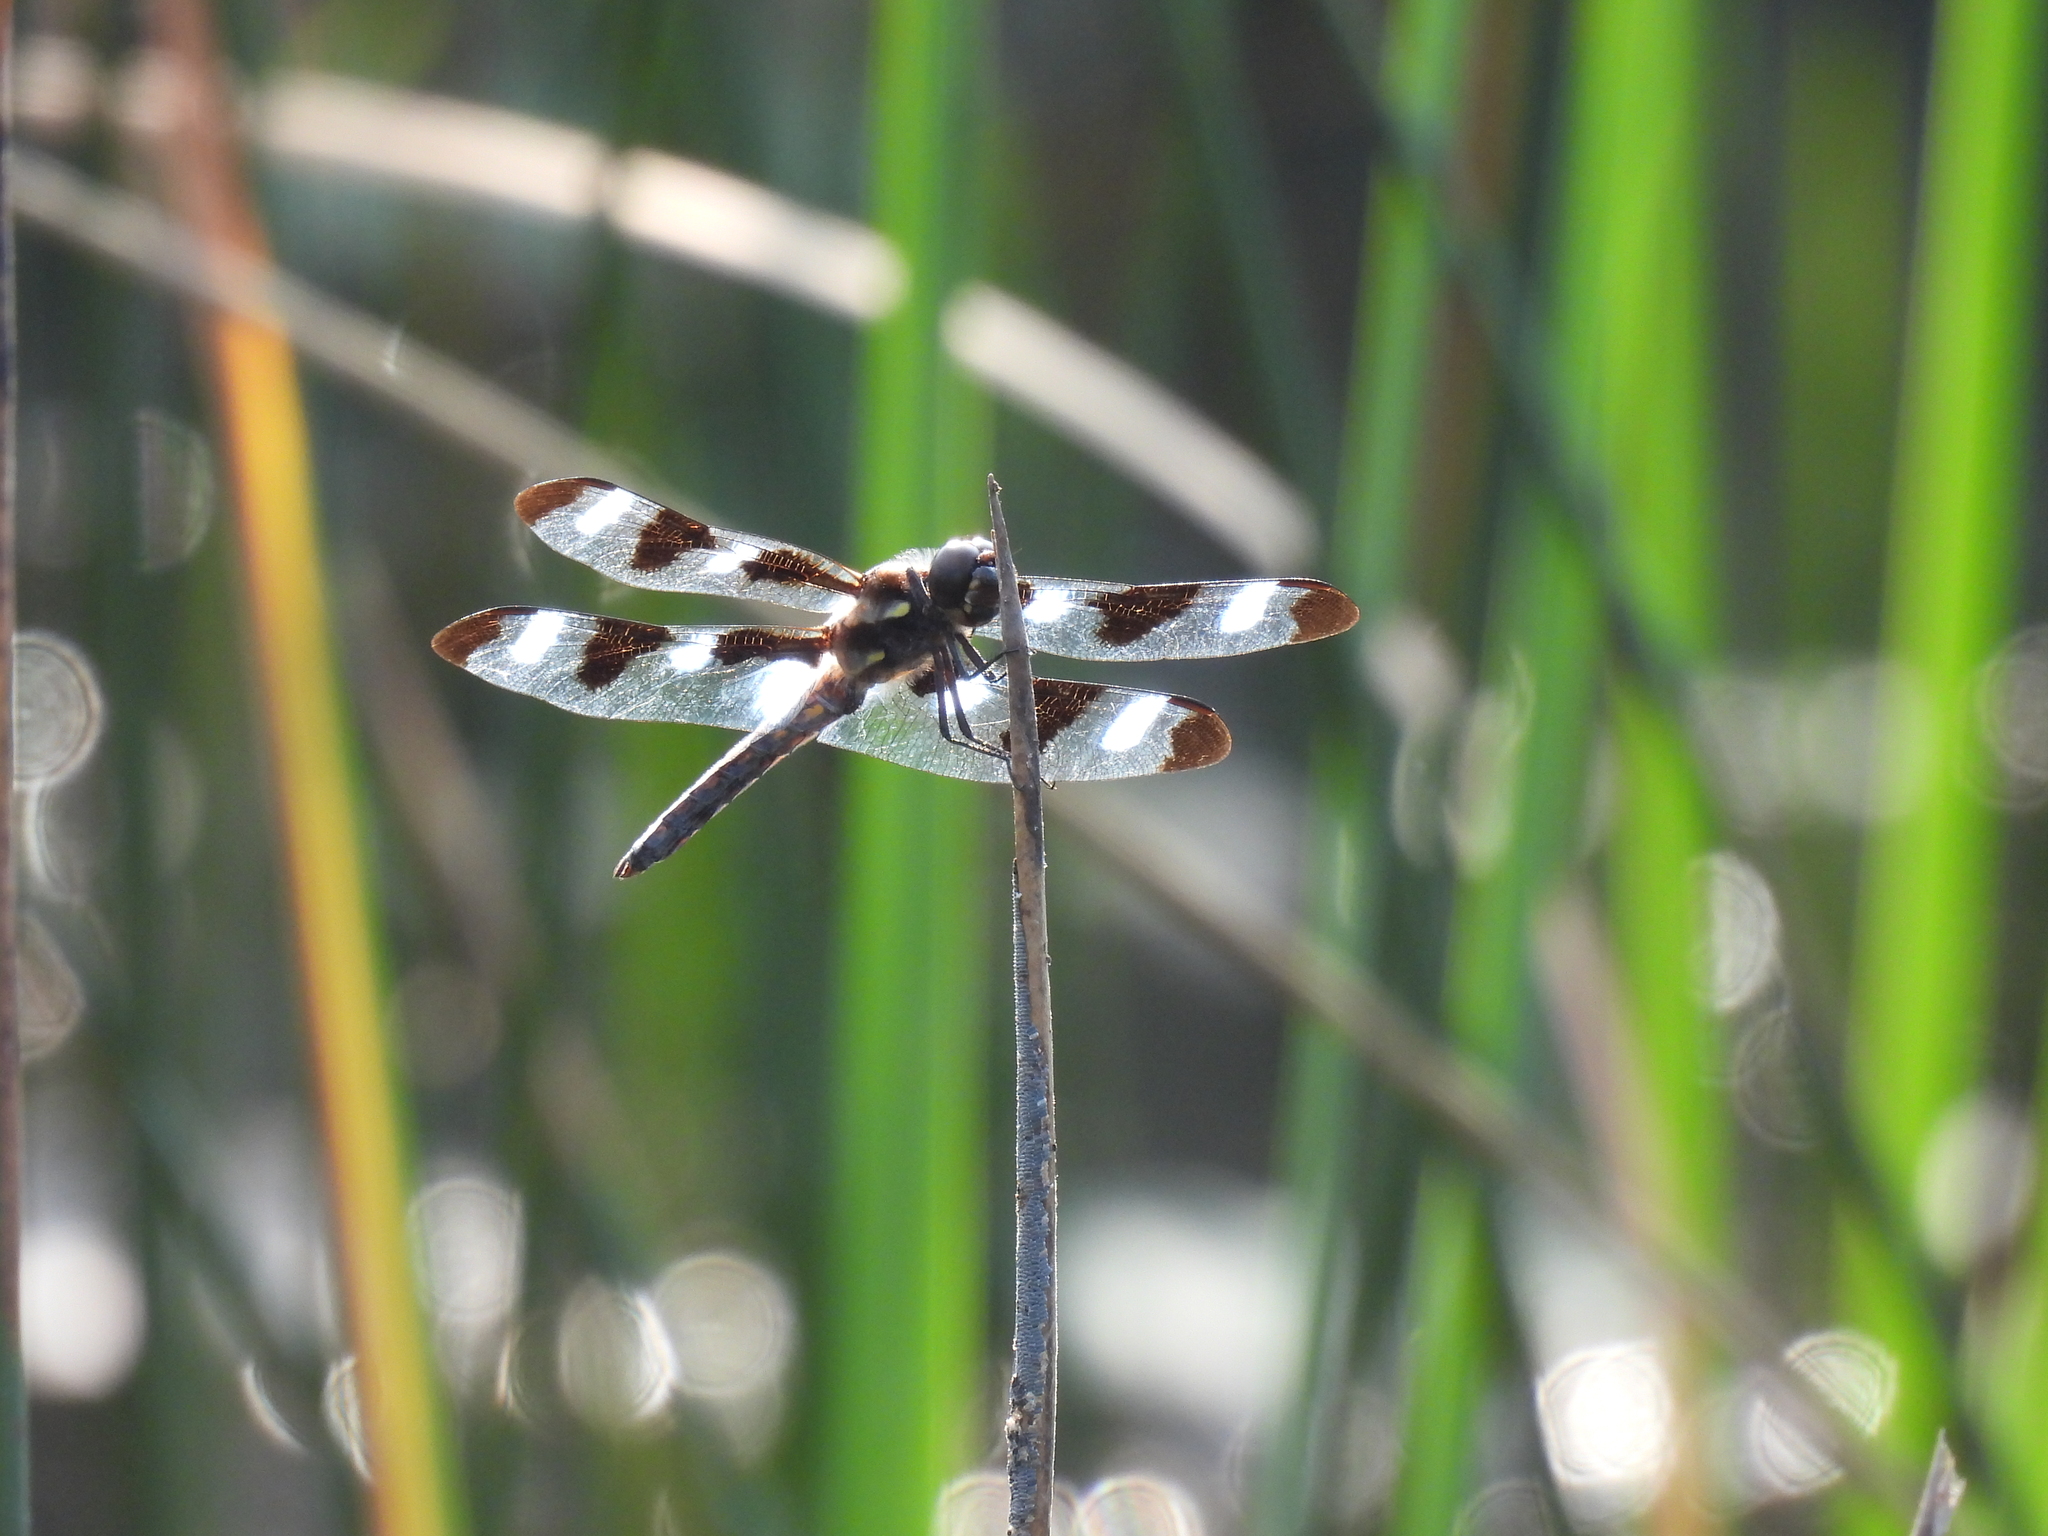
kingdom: Animalia
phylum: Arthropoda
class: Insecta
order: Odonata
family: Libellulidae
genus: Libellula
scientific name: Libellula pulchella
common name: Twelve-spotted skimmer
